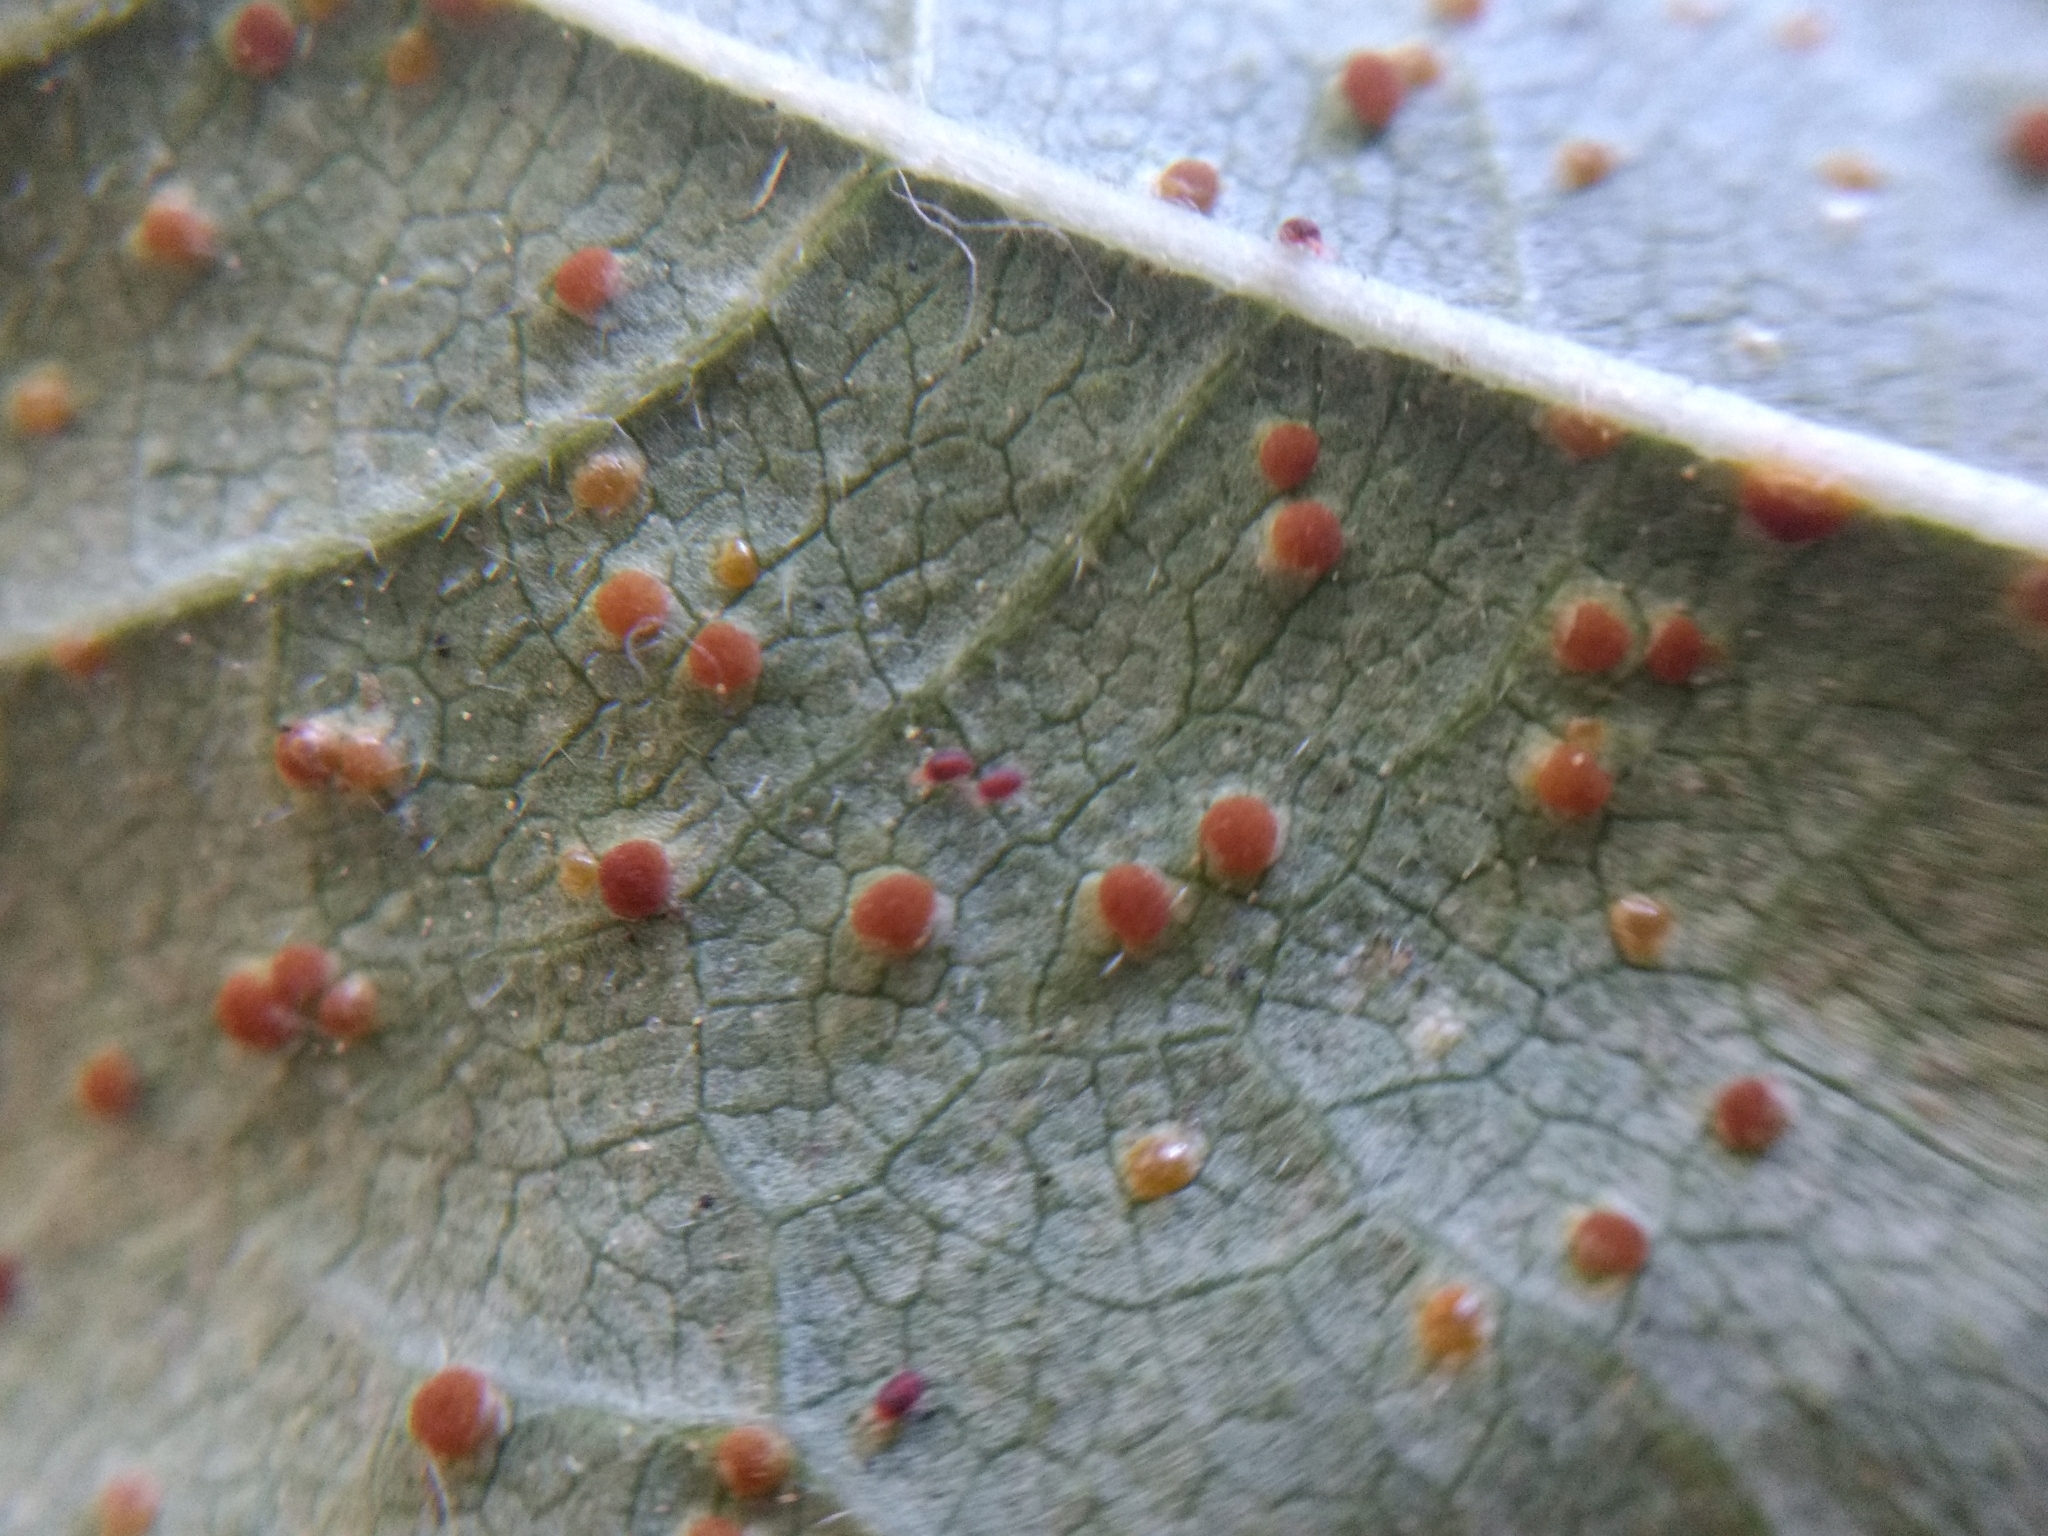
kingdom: Fungi
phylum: Basidiomycota
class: Pucciniomycetes
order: Pucciniales
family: Pucciniaceae
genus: Puccinia
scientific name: Puccinia malvacearum
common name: Hollyhock rust
